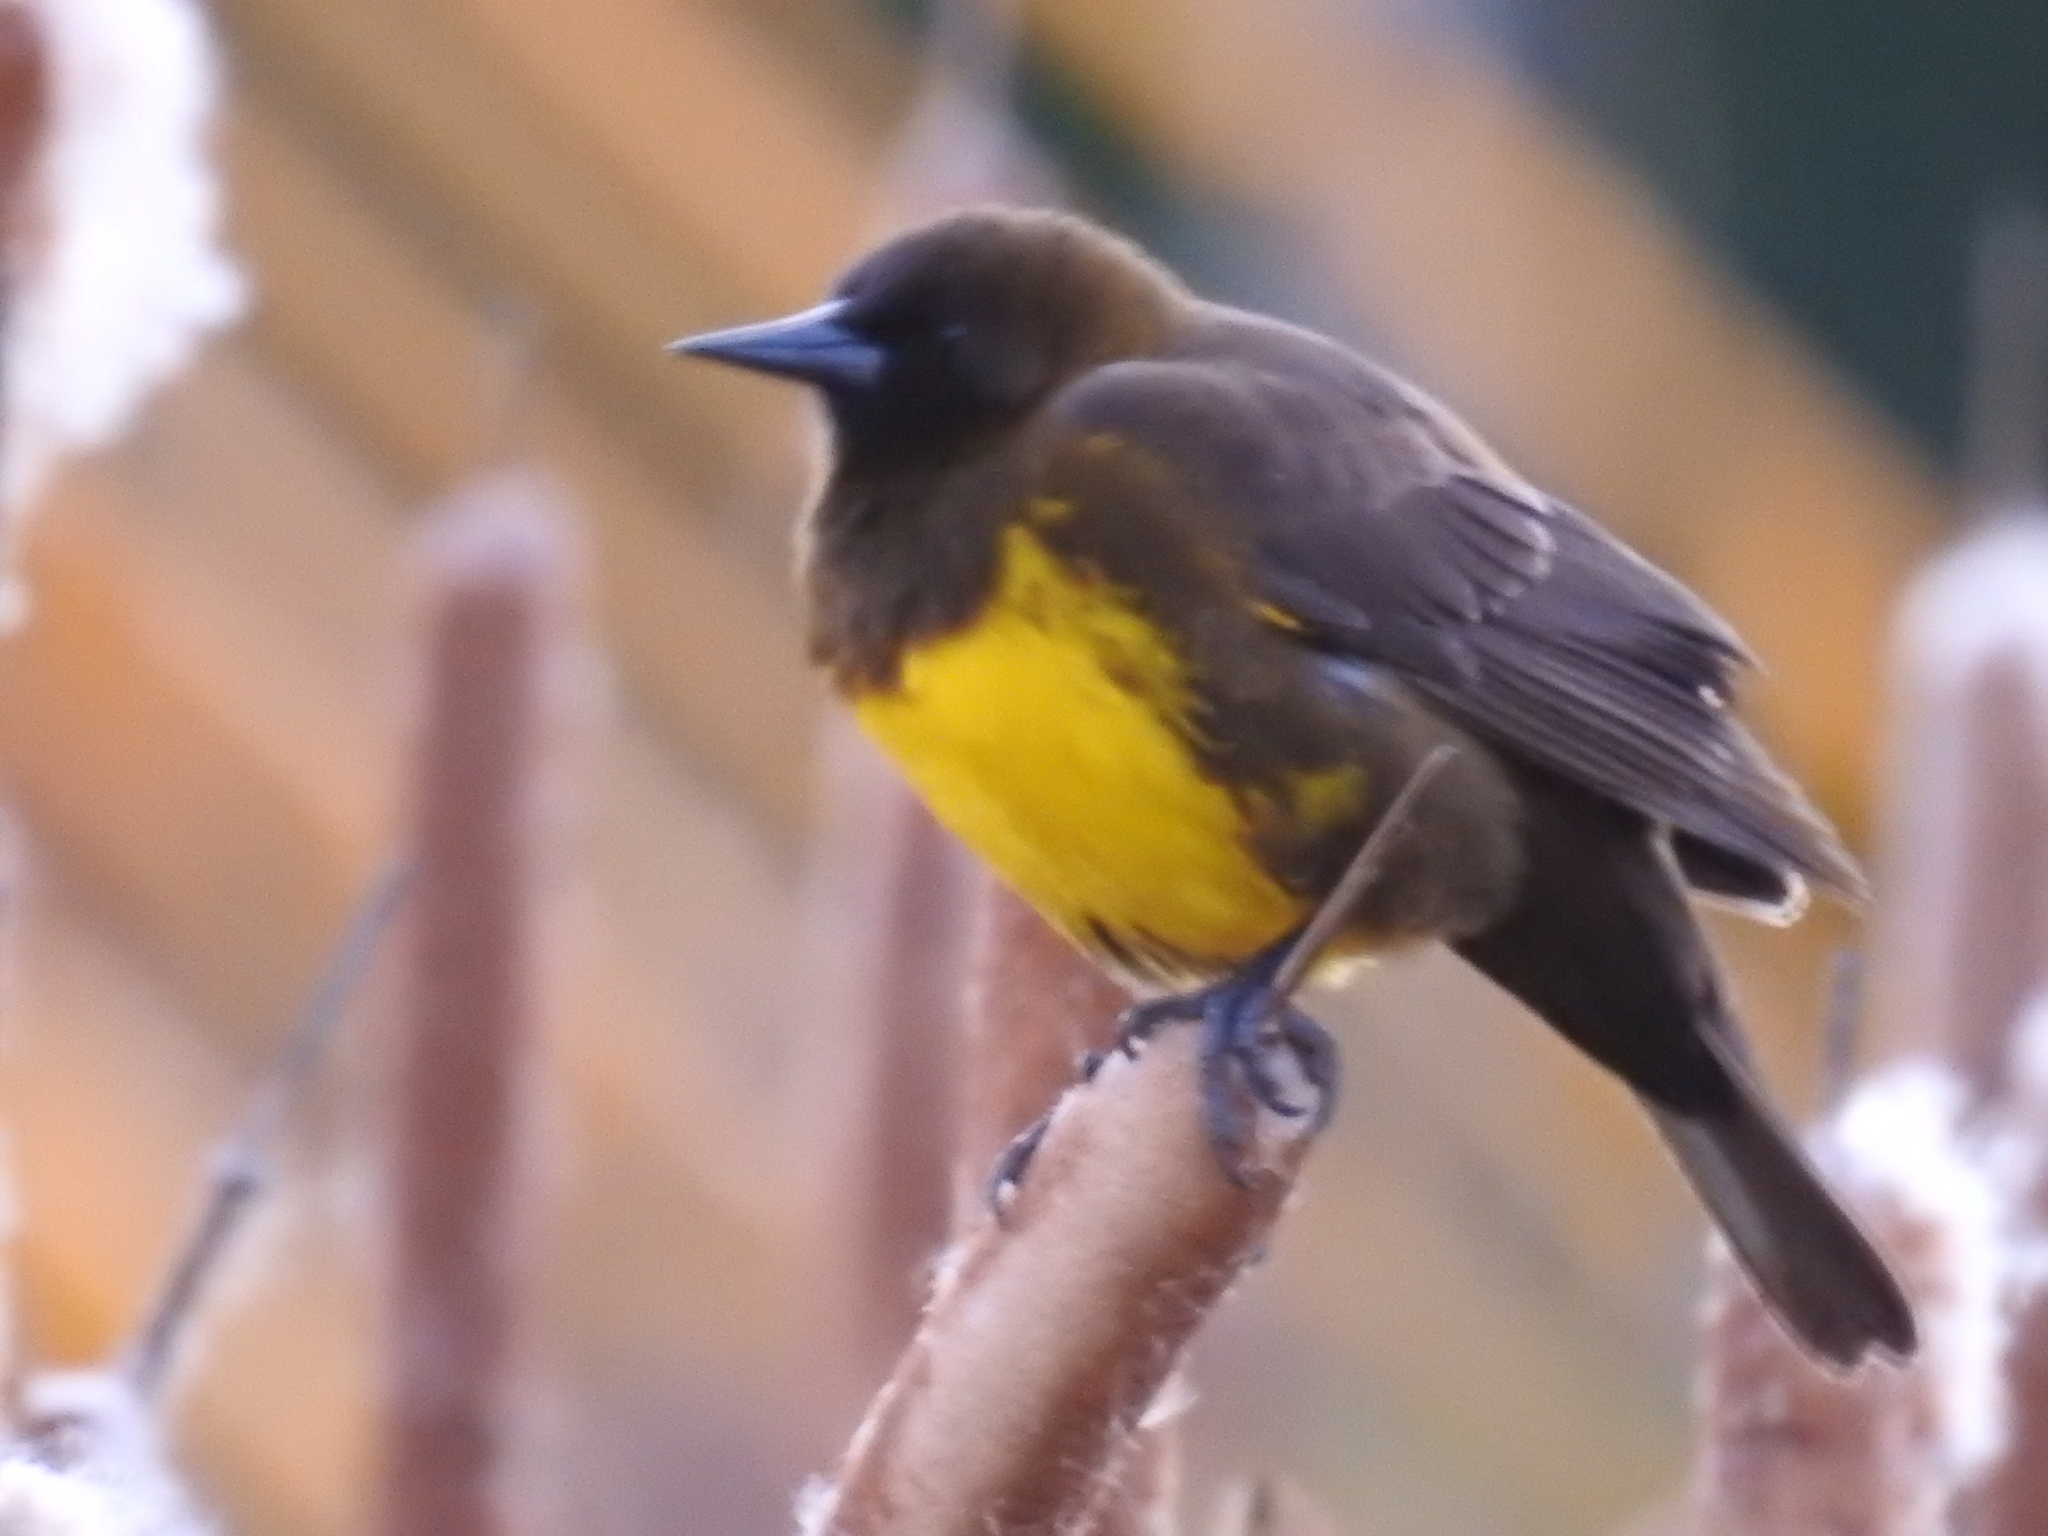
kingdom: Animalia
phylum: Chordata
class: Aves
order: Passeriformes
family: Icteridae
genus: Pseudoleistes
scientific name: Pseudoleistes virescens
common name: Brown-and-yellow marshbird
